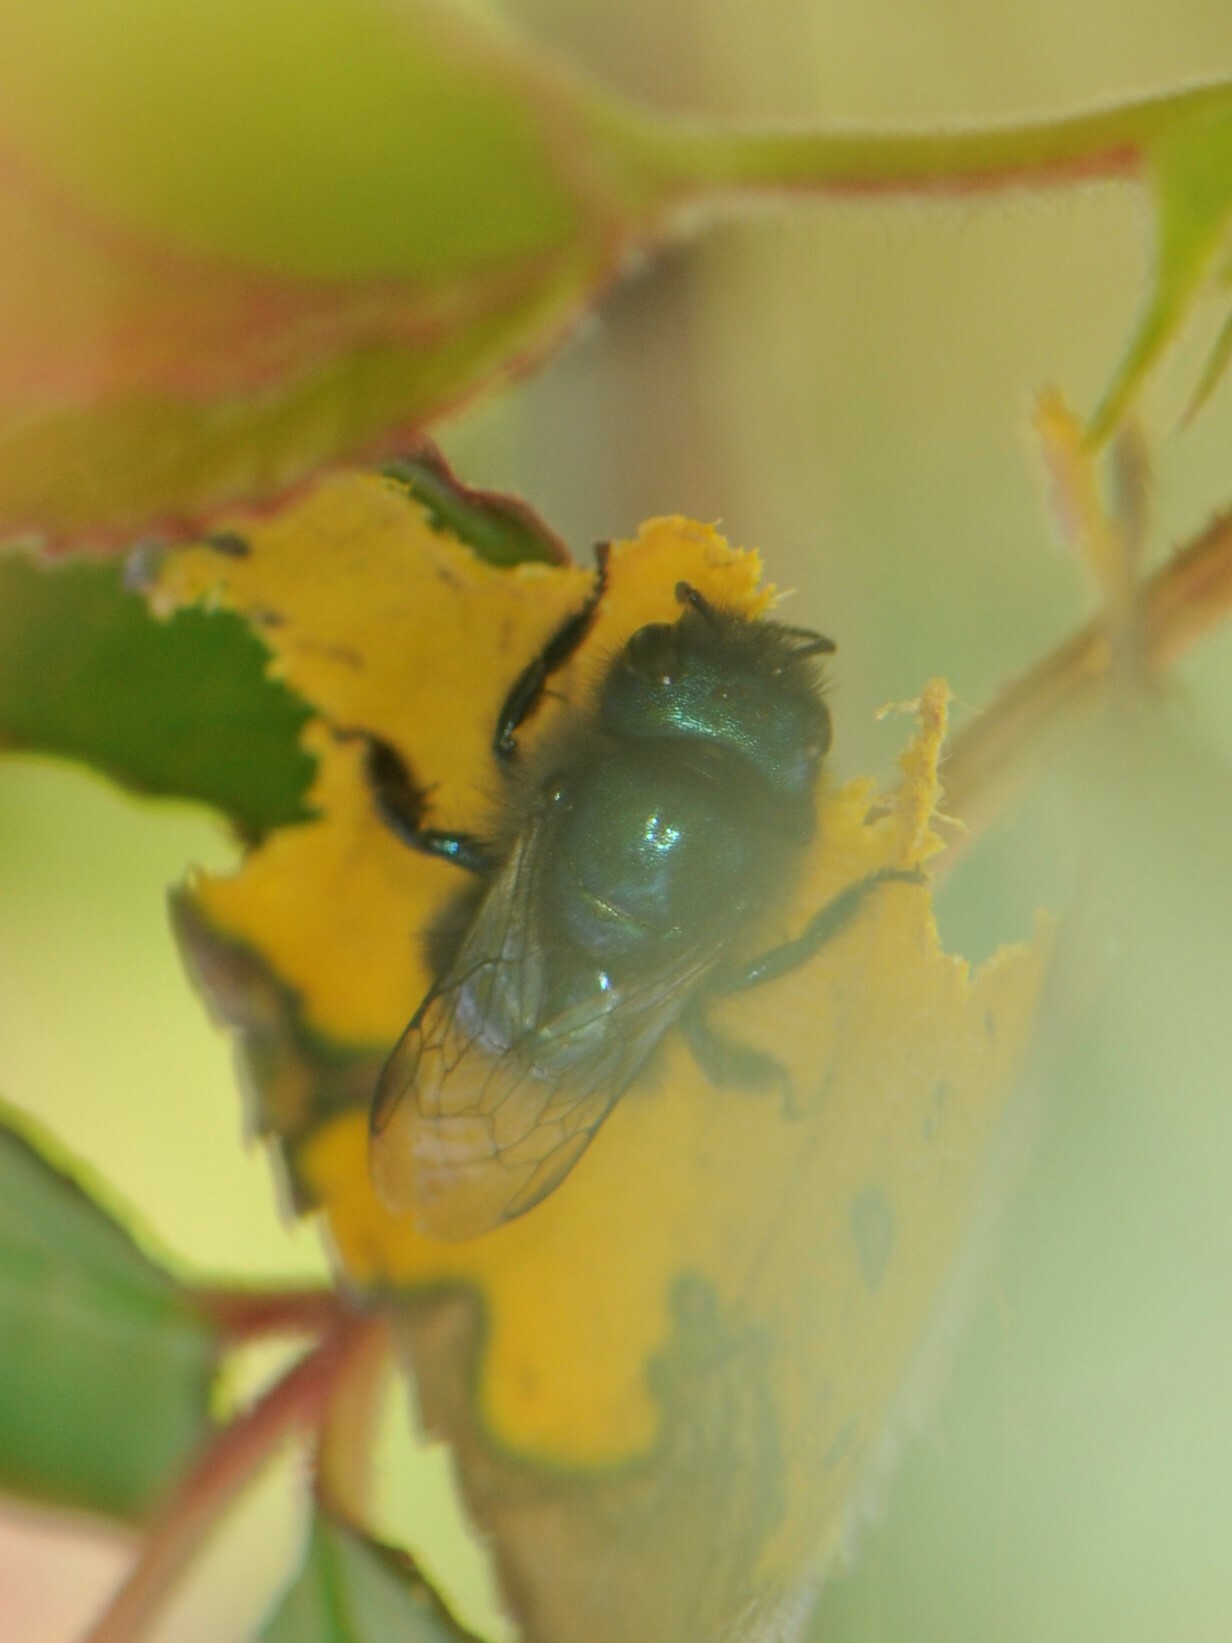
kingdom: Animalia
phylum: Arthropoda
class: Insecta
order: Hymenoptera
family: Megachilidae
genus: Osmia
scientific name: Osmia ribifloris
